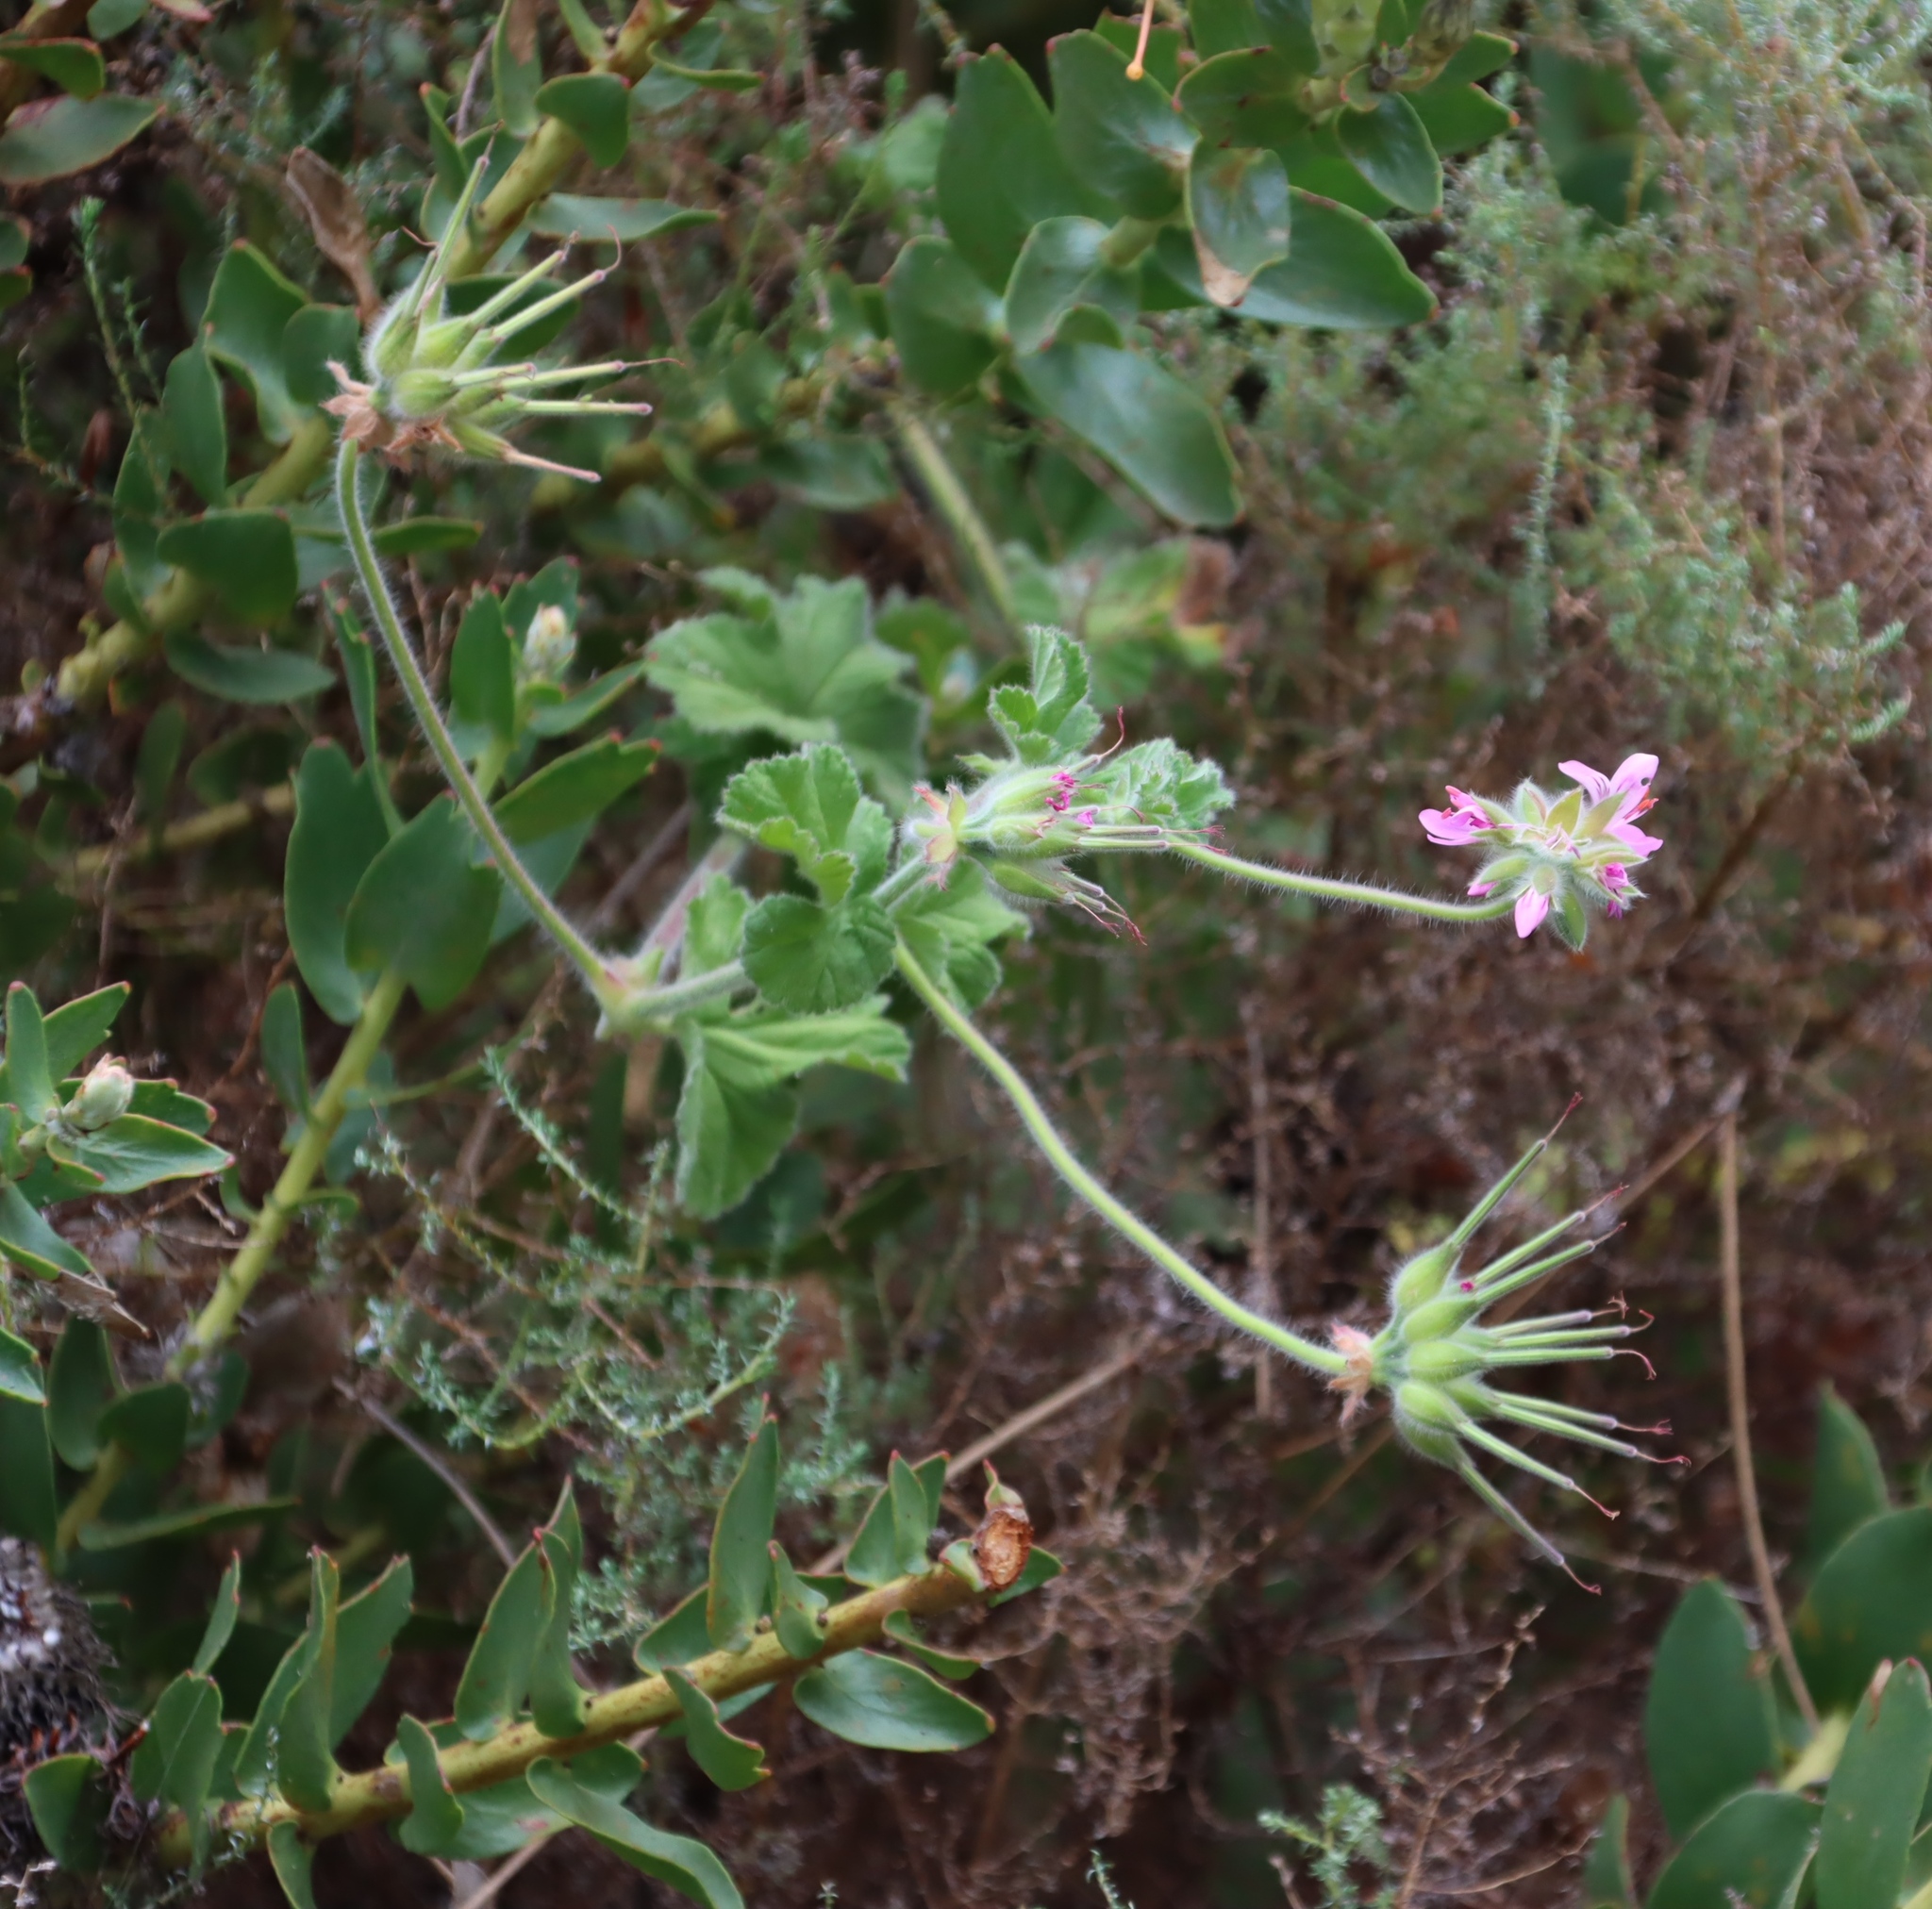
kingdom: Plantae
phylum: Tracheophyta
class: Magnoliopsida
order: Geraniales
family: Geraniaceae
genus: Pelargonium
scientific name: Pelargonium capitatum
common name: Rose scented geranium
